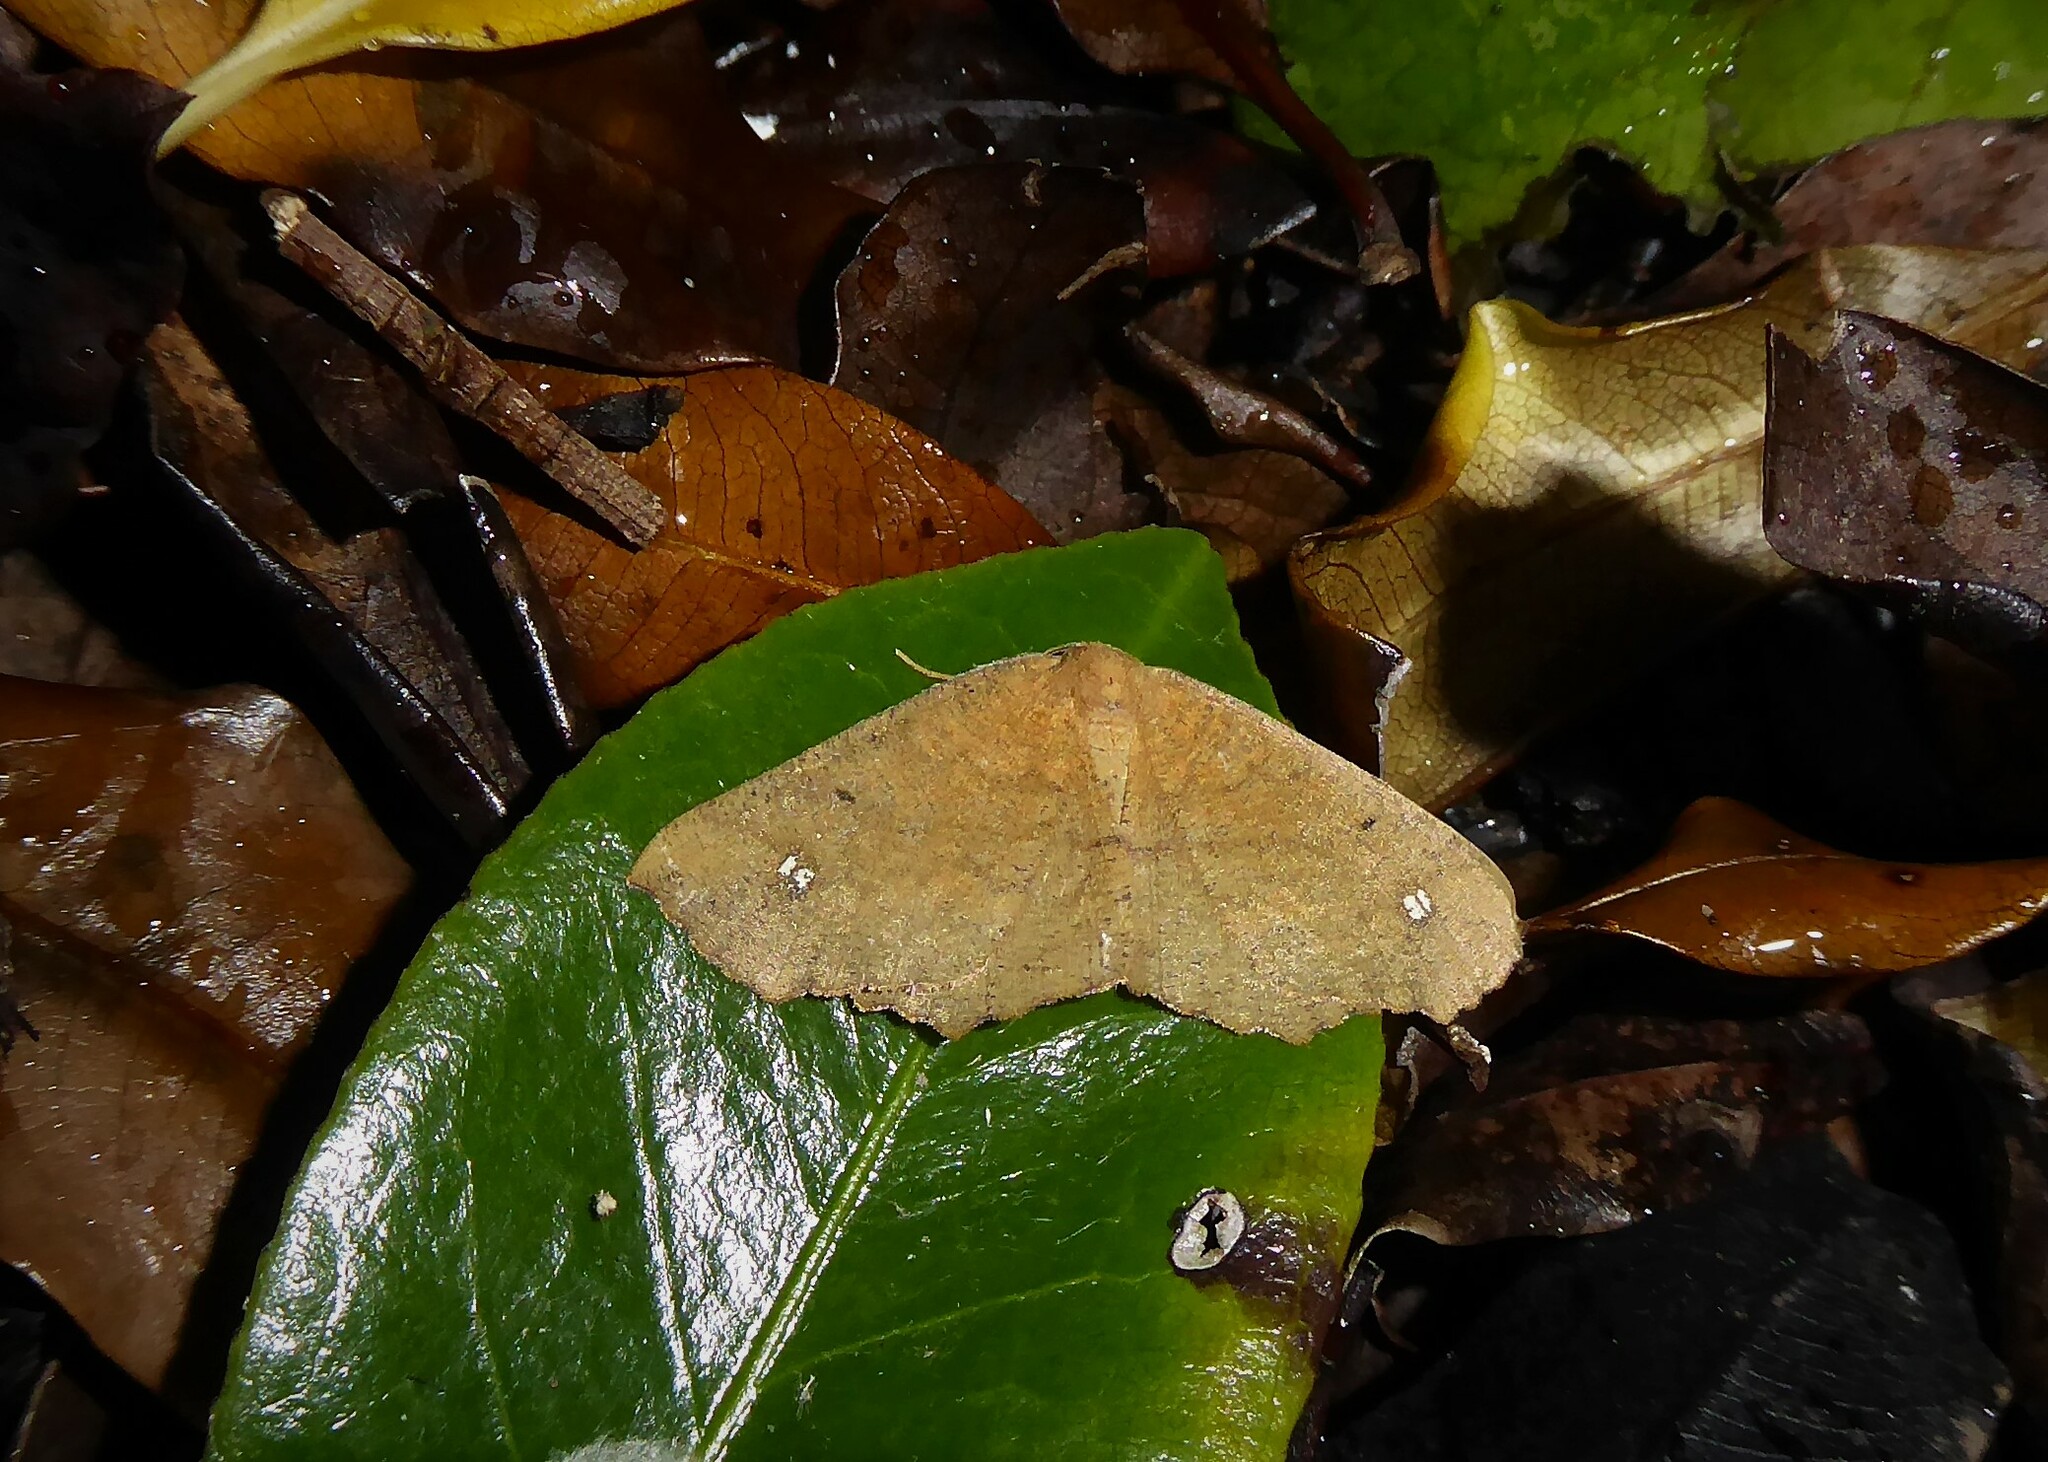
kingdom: Animalia
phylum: Arthropoda
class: Insecta
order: Lepidoptera
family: Geometridae
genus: Xyridacma
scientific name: Xyridacma ustaria
